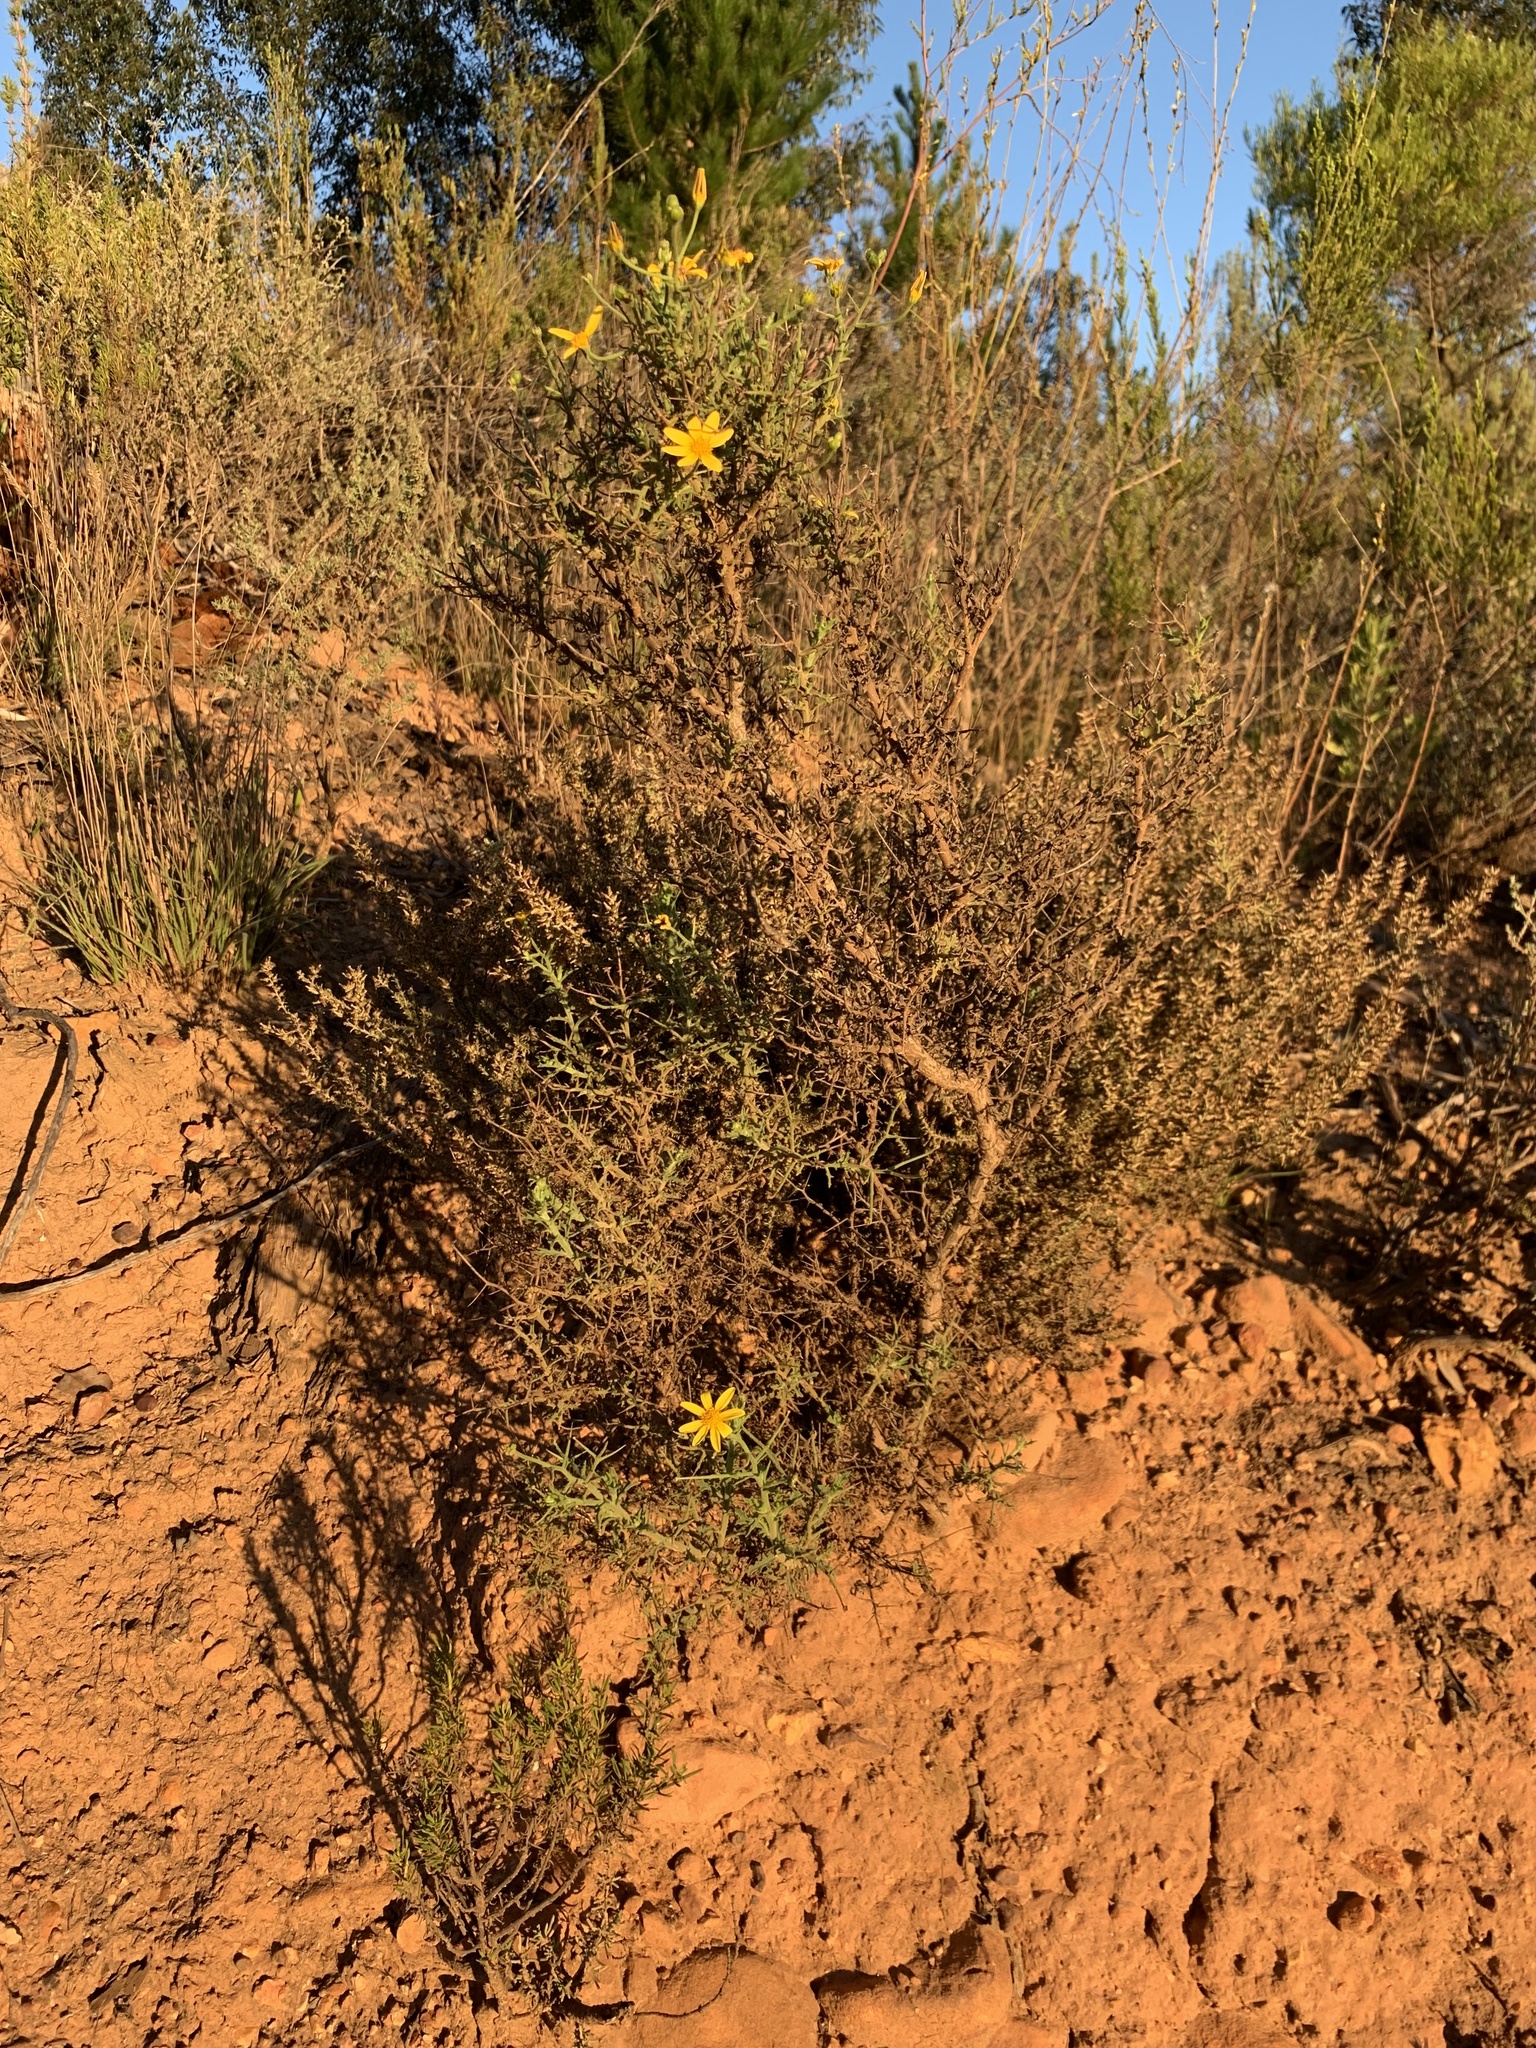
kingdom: Plantae
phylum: Tracheophyta
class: Magnoliopsida
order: Asterales
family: Asteraceae
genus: Osteospermum
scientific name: Osteospermum spinosum
